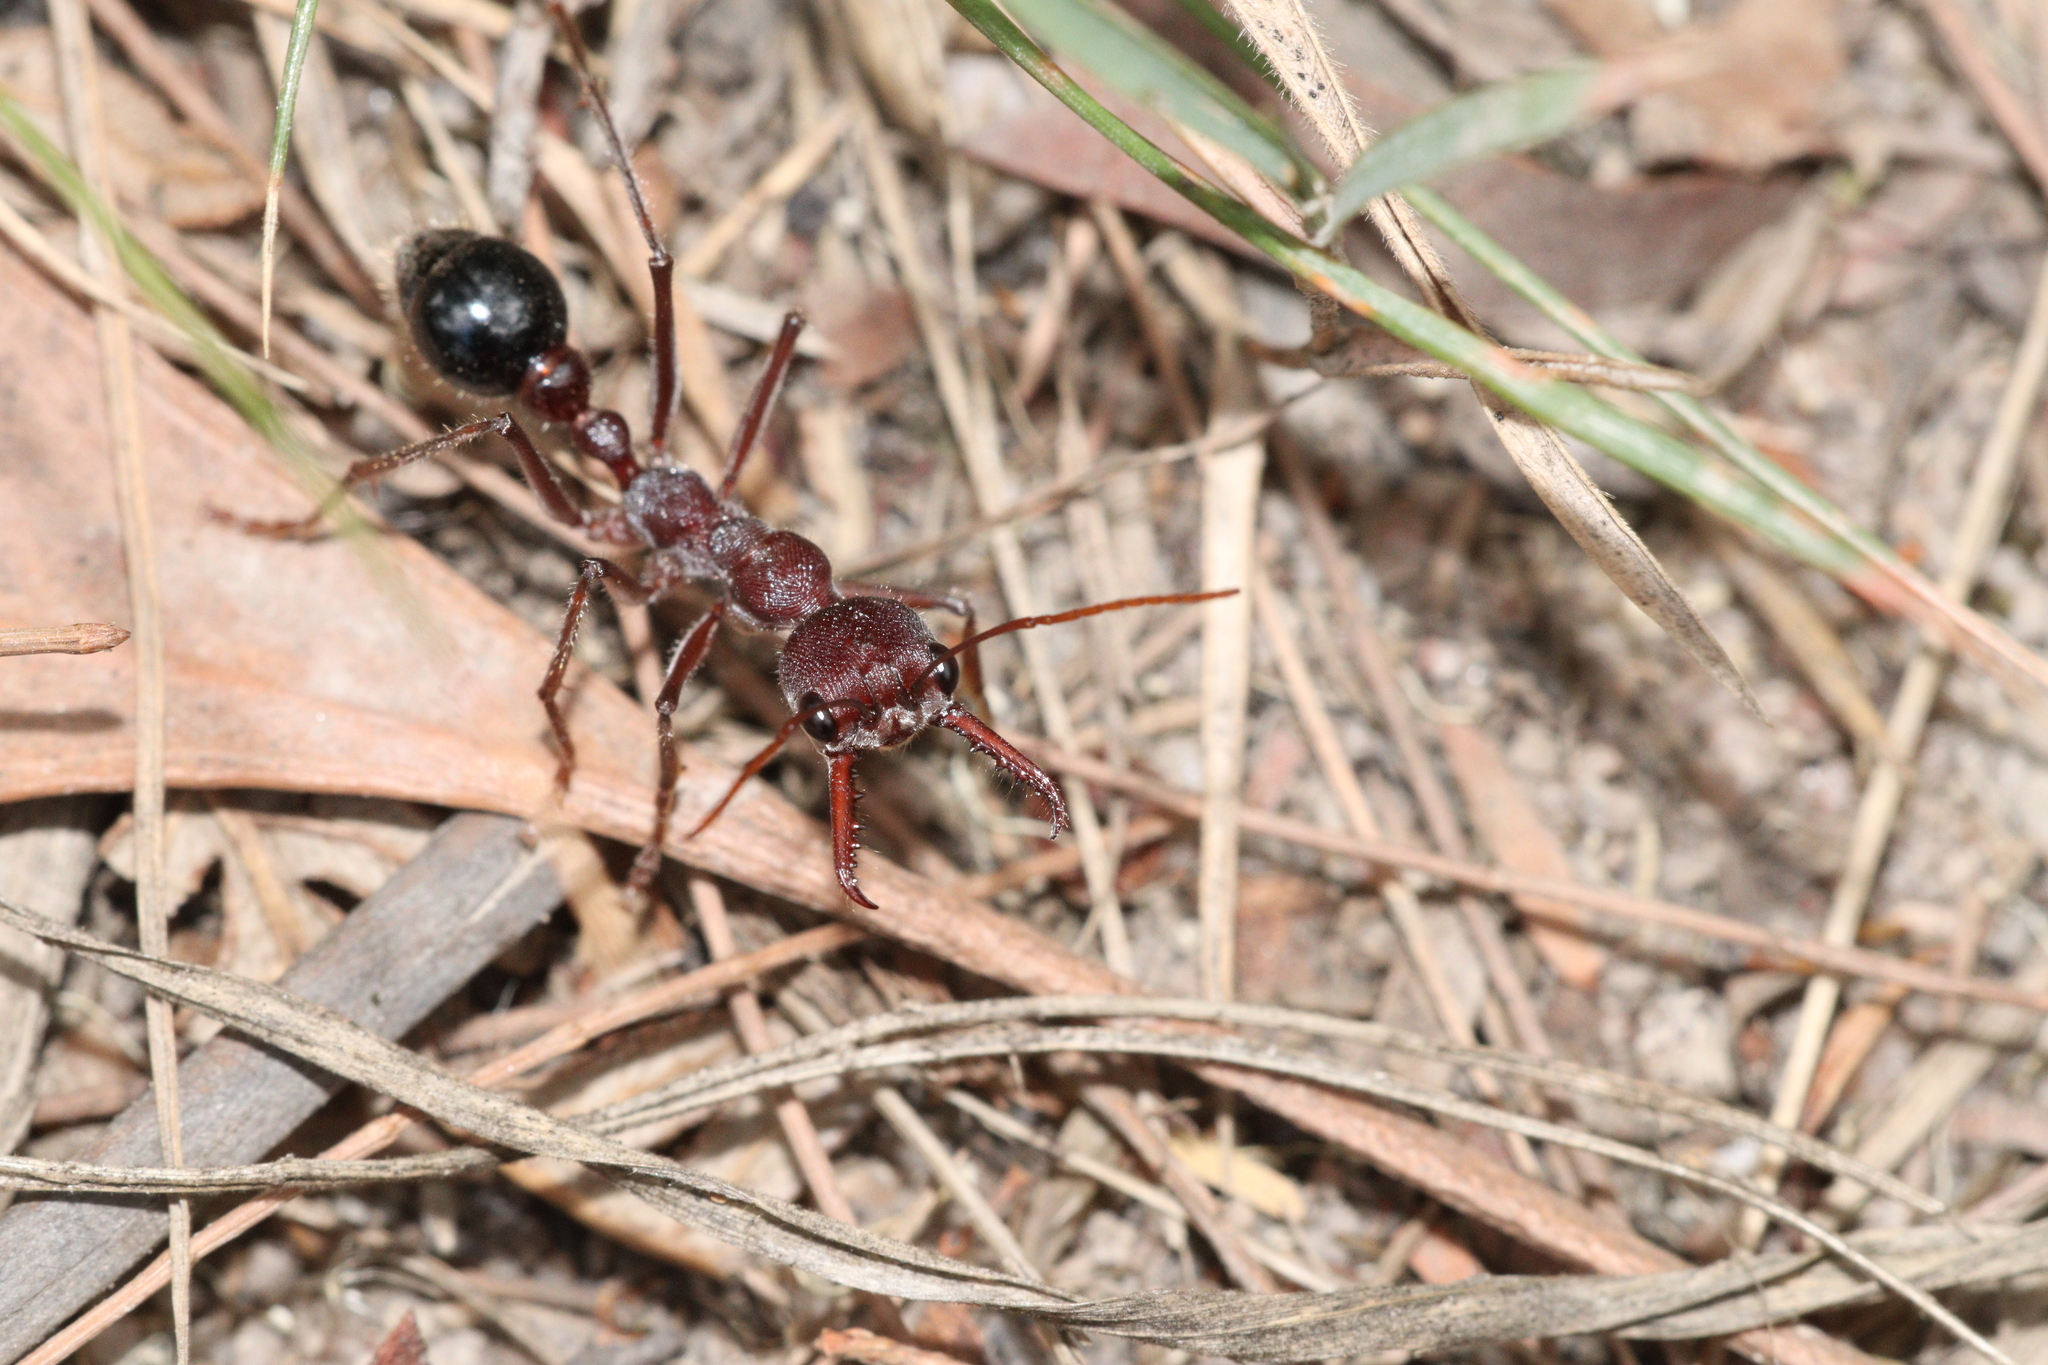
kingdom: Animalia
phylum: Arthropoda
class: Insecta
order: Hymenoptera
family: Formicidae
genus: Myrmecia
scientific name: Myrmecia simillima
